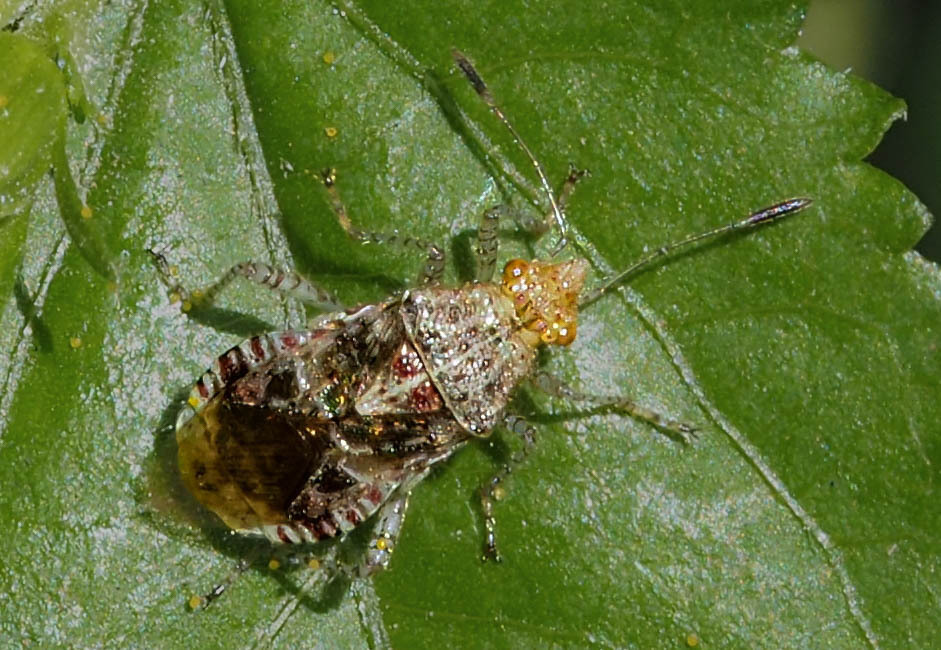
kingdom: Animalia
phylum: Arthropoda
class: Insecta
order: Hemiptera
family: Rhopalidae
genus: Niesthrea
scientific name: Niesthrea
